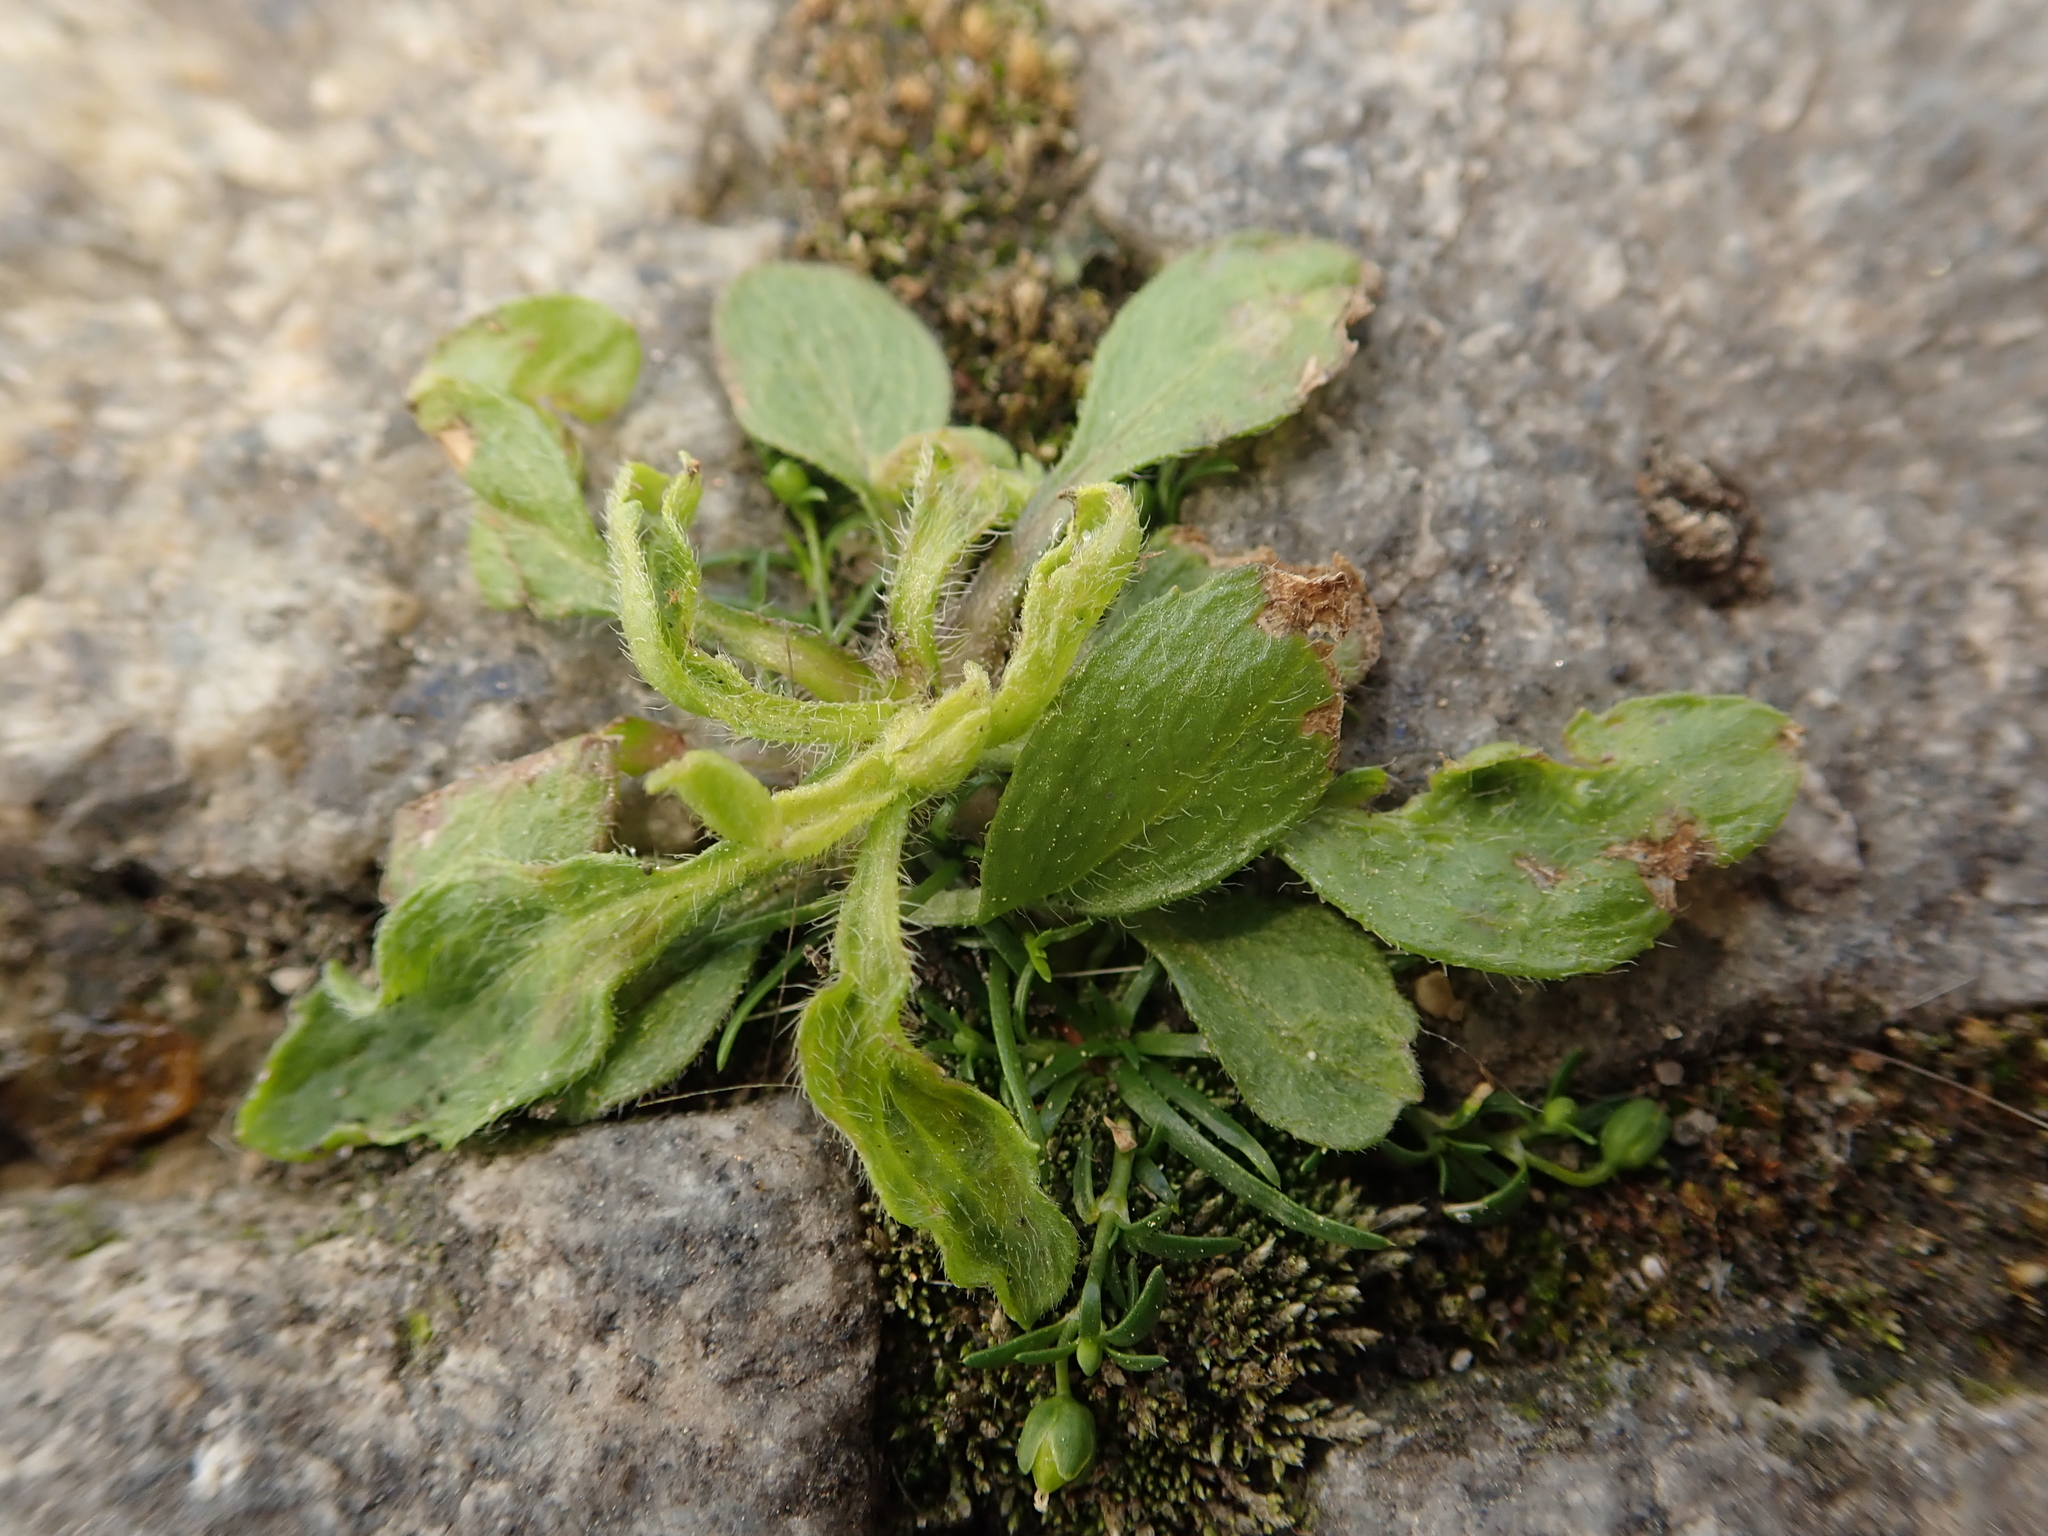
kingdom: Plantae
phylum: Tracheophyta
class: Magnoliopsida
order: Asterales
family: Asteraceae
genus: Erigeron
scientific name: Erigeron canadensis
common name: Canadian fleabane
